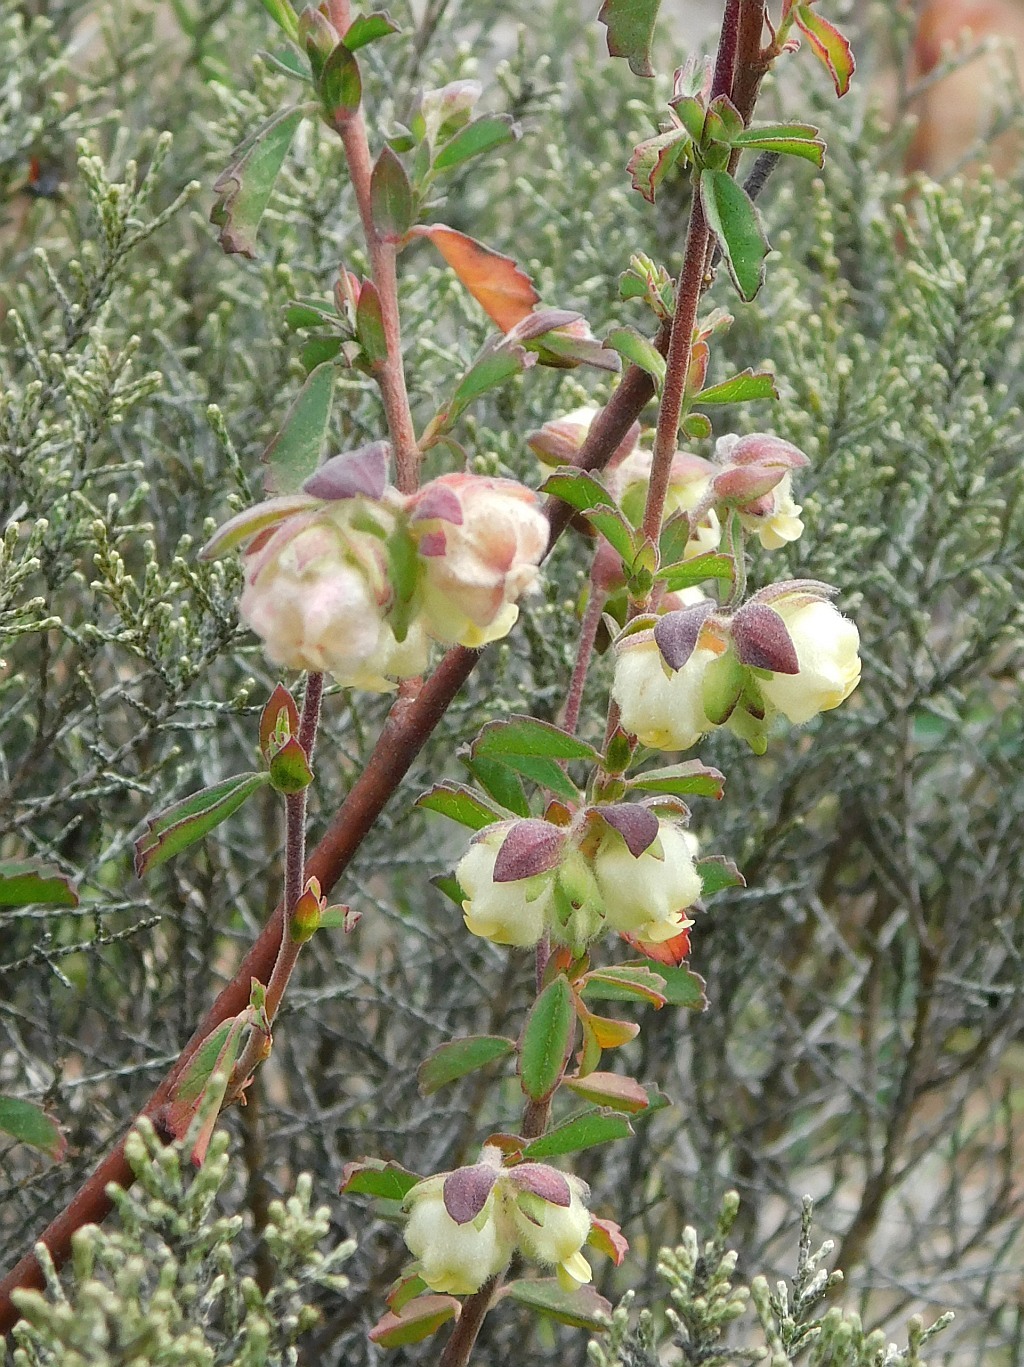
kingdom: Plantae
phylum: Tracheophyta
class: Magnoliopsida
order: Malvales
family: Malvaceae
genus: Hermannia
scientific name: Hermannia hyssopifolia
